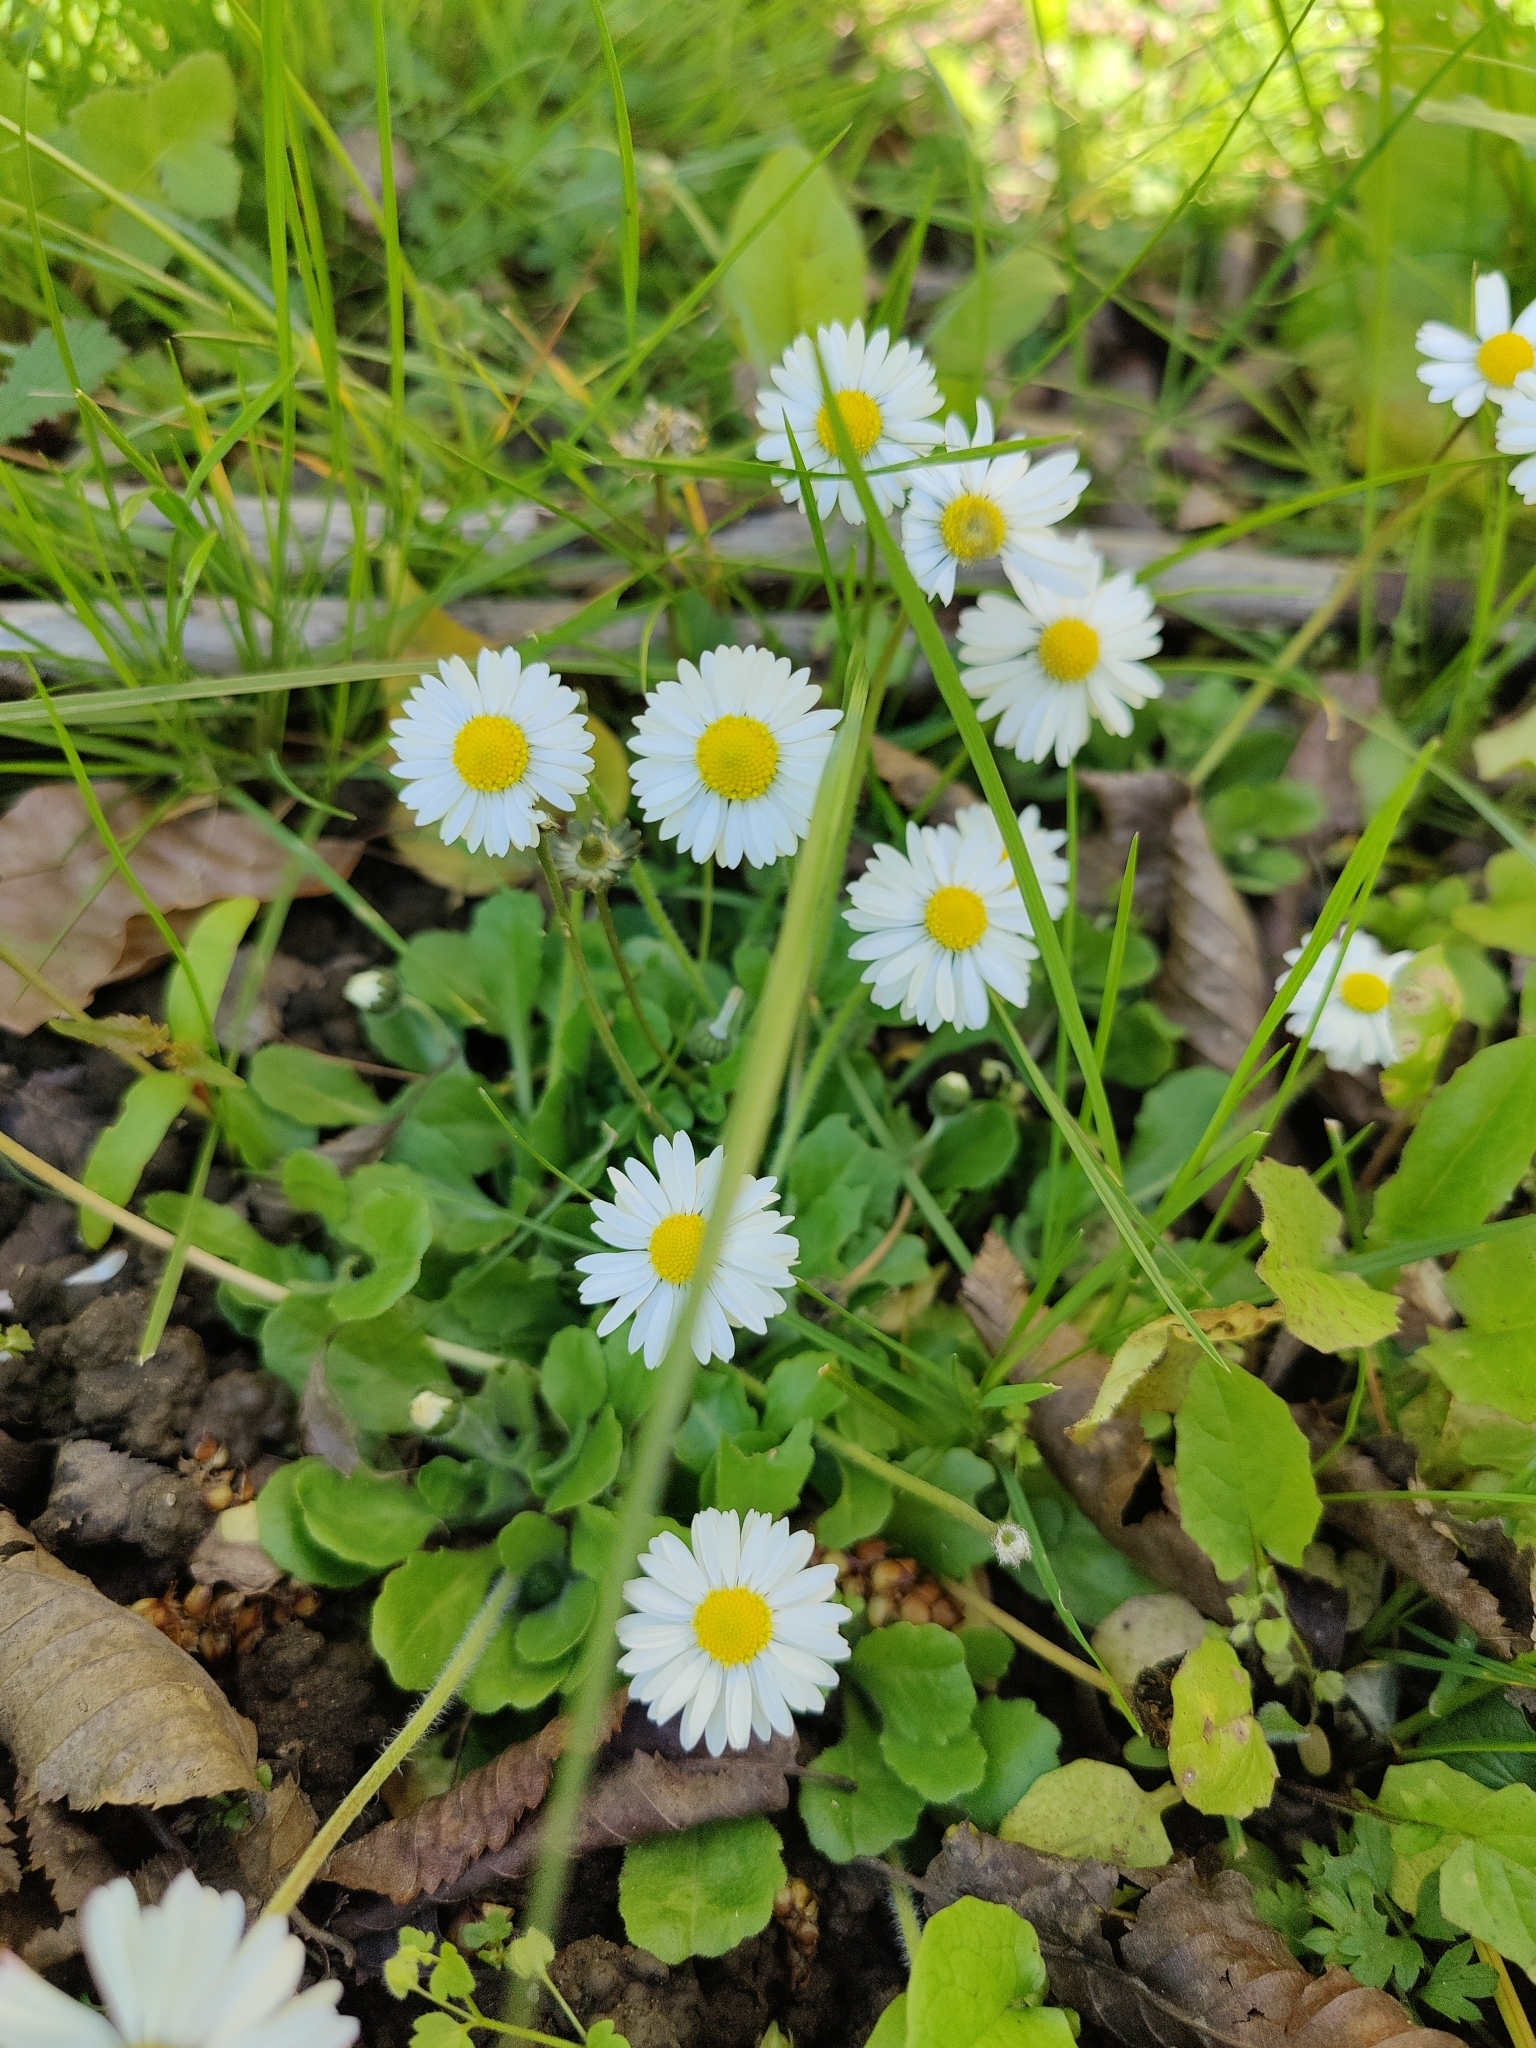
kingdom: Plantae
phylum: Tracheophyta
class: Magnoliopsida
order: Asterales
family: Asteraceae
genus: Bellis
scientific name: Bellis perennis
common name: Lawndaisy
